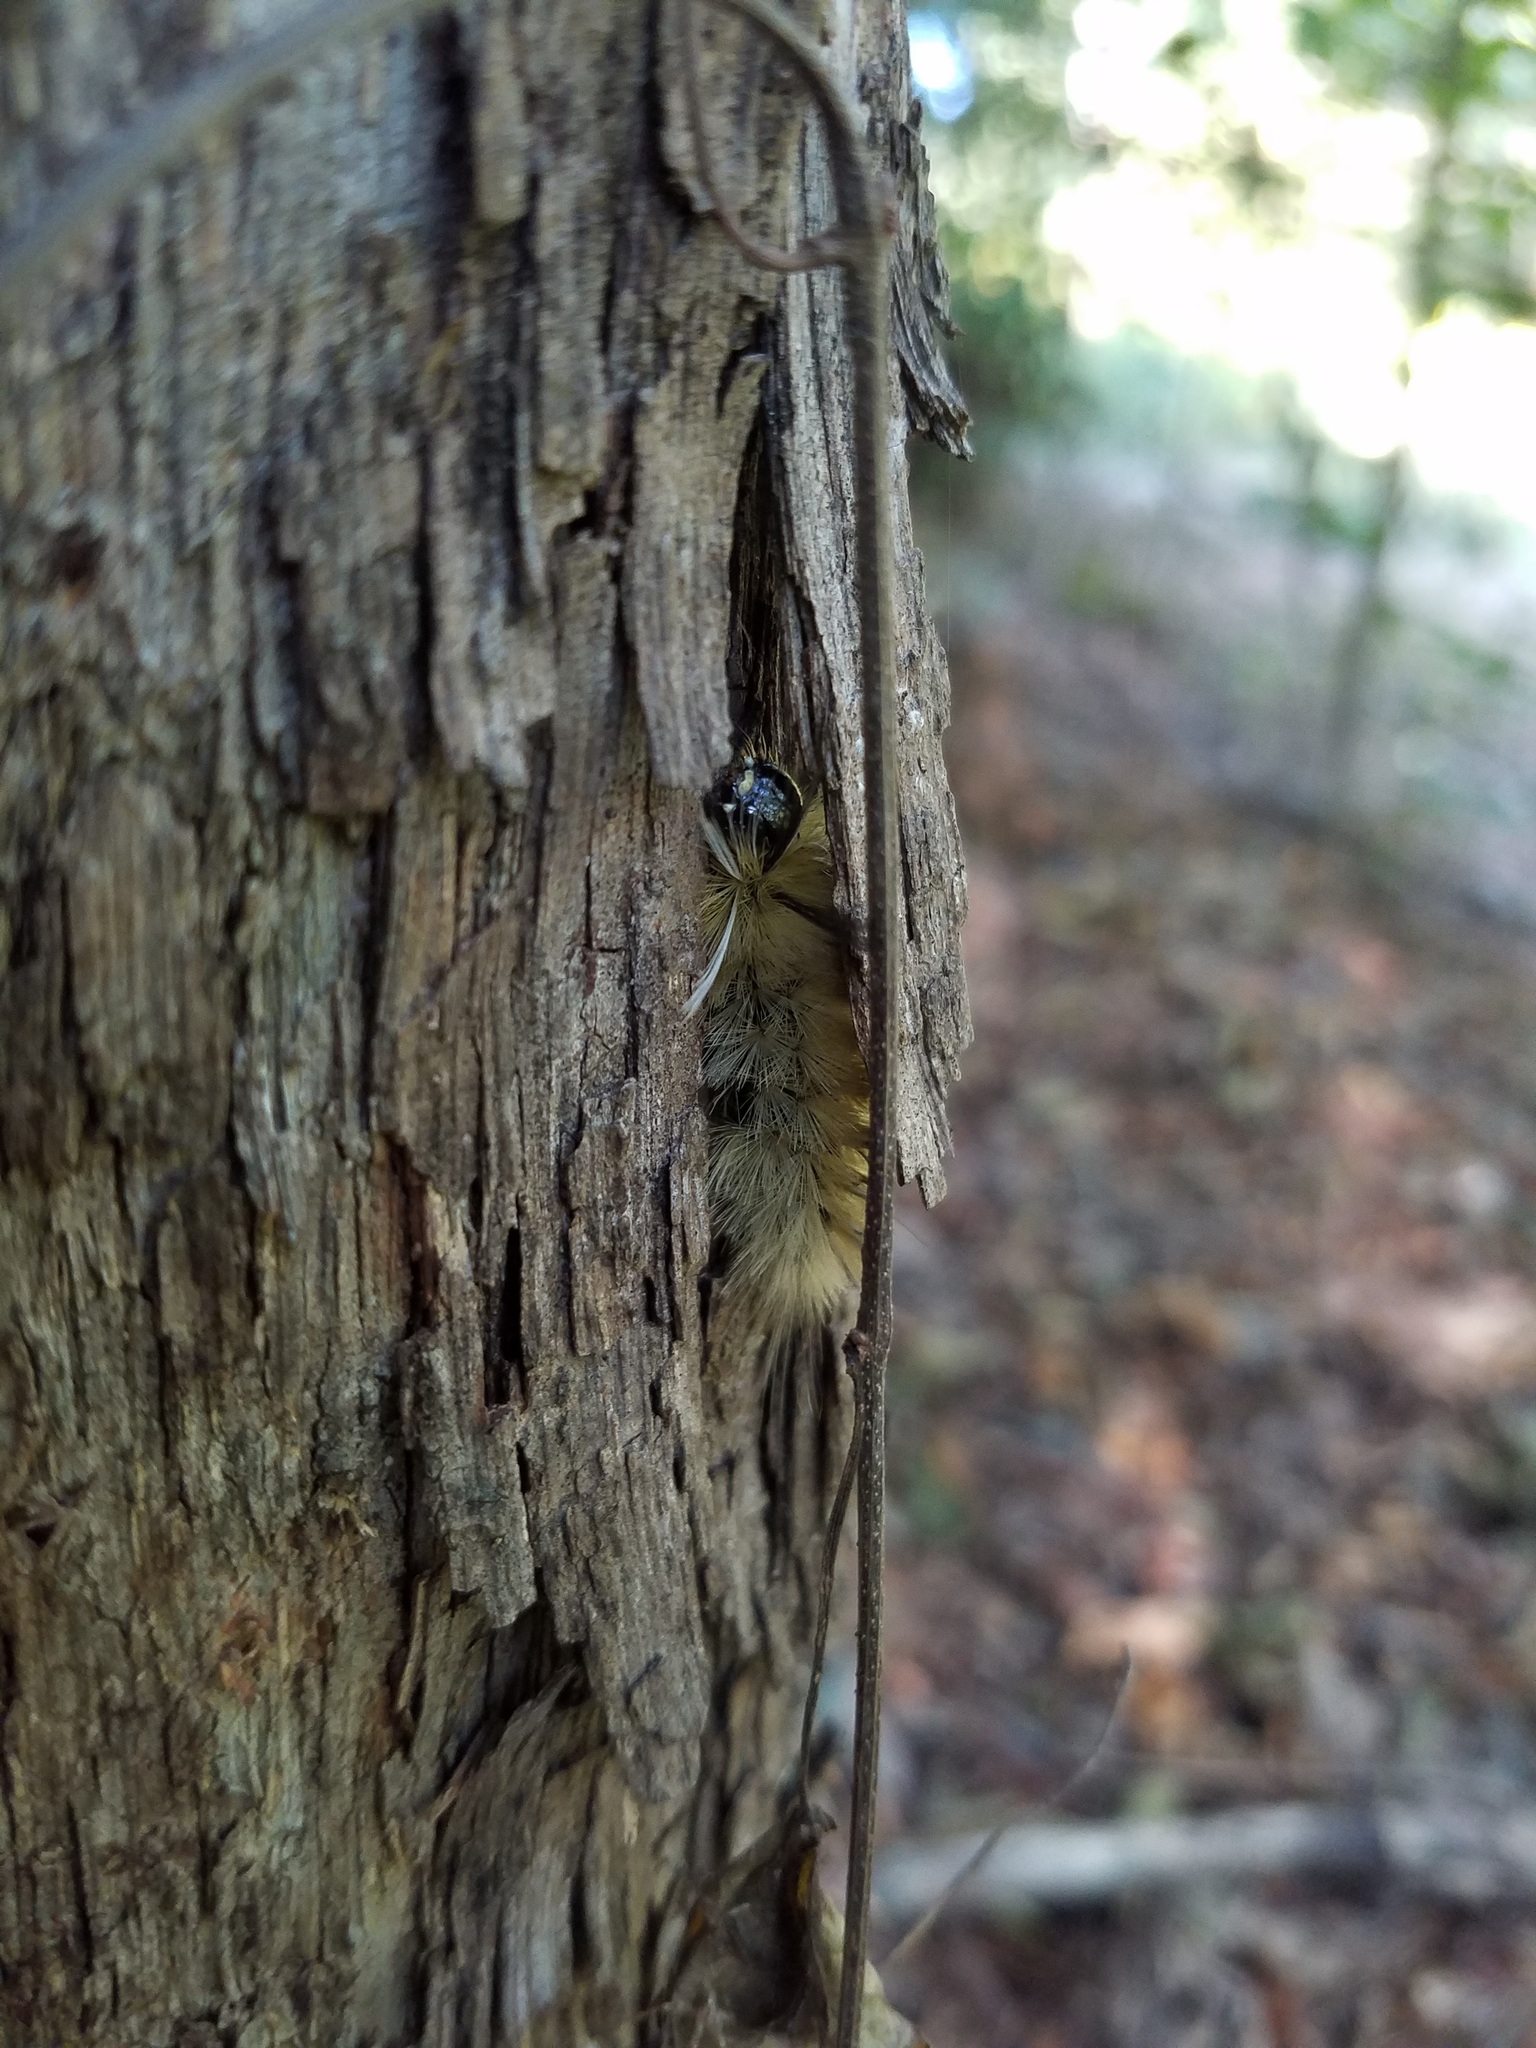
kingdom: Animalia
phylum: Arthropoda
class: Insecta
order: Lepidoptera
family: Erebidae
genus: Halysidota
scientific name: Halysidota tessellaris
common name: Banded tussock moth
